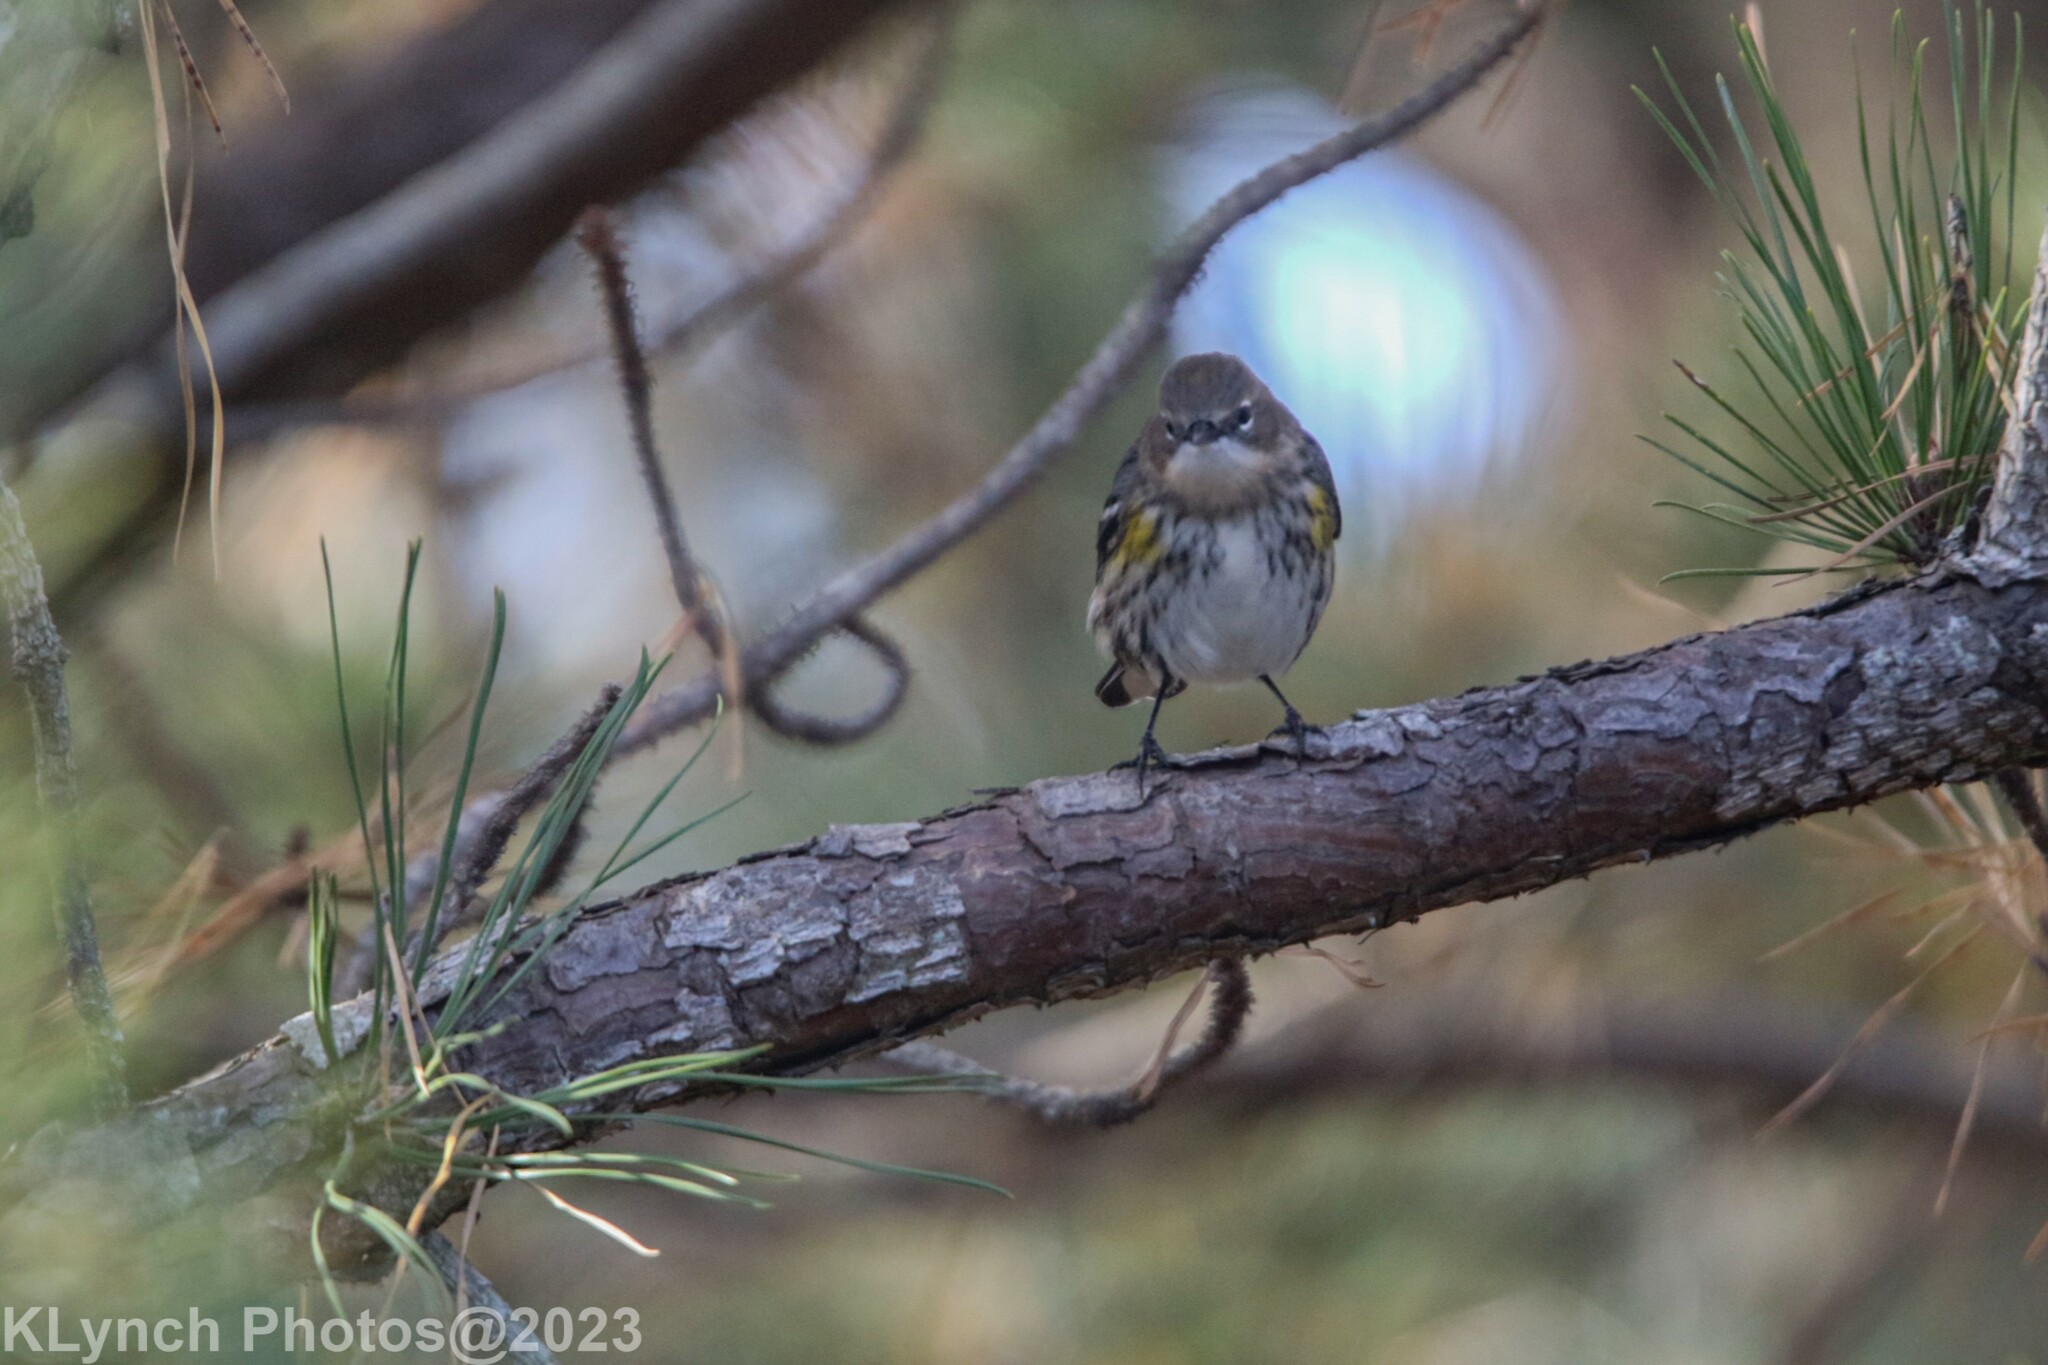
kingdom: Animalia
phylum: Chordata
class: Aves
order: Passeriformes
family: Parulidae
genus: Setophaga
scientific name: Setophaga coronata
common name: Myrtle warbler
